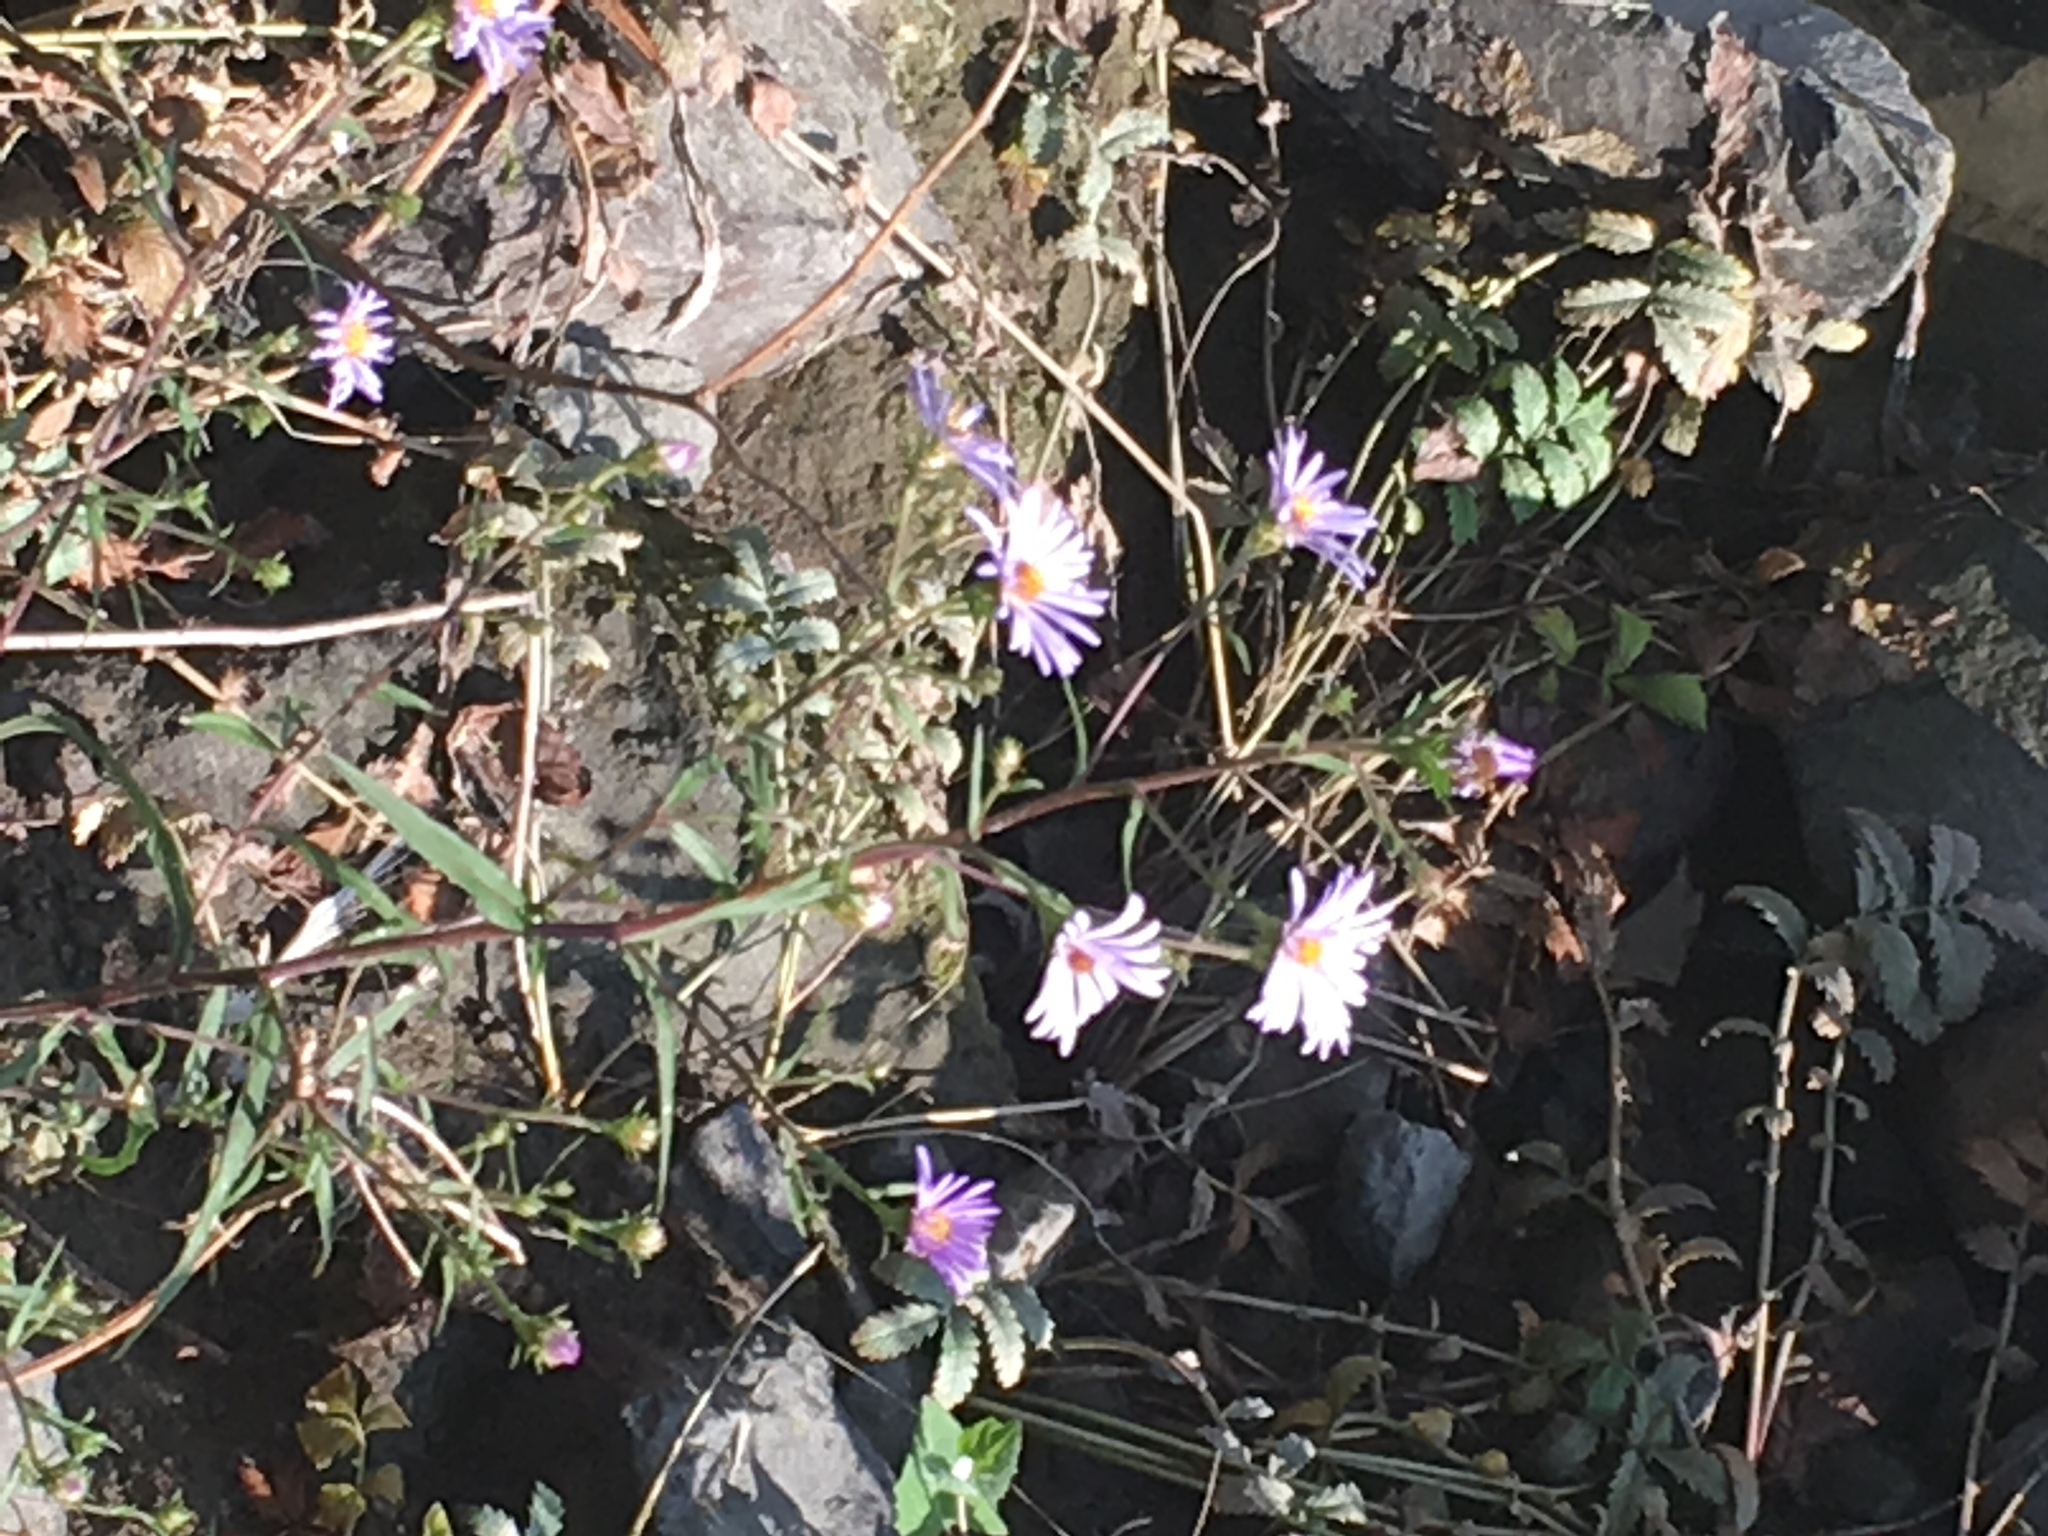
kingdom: Plantae
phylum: Tracheophyta
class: Magnoliopsida
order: Asterales
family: Asteraceae
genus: Symphyotrichum
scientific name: Symphyotrichum chilense
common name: Pacific aster
